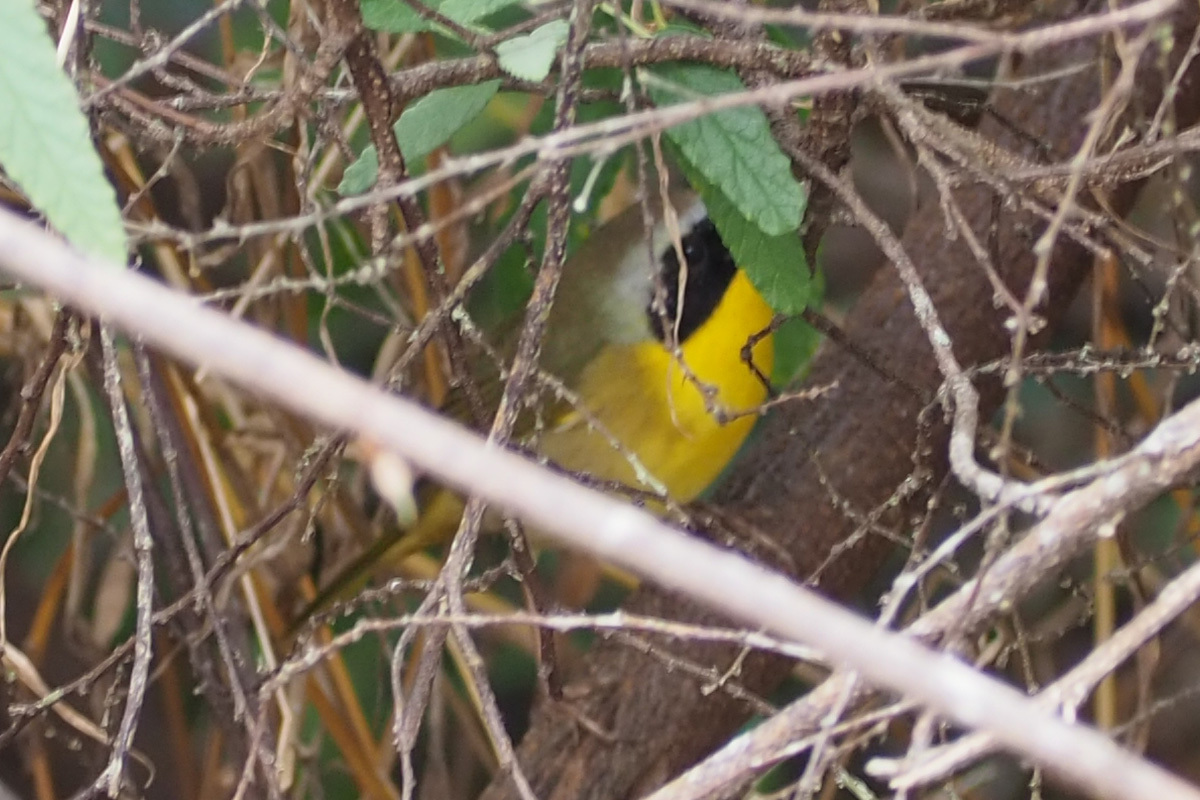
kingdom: Animalia
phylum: Chordata
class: Aves
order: Passeriformes
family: Parulidae
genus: Geothlypis
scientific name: Geothlypis trichas
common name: Common yellowthroat
